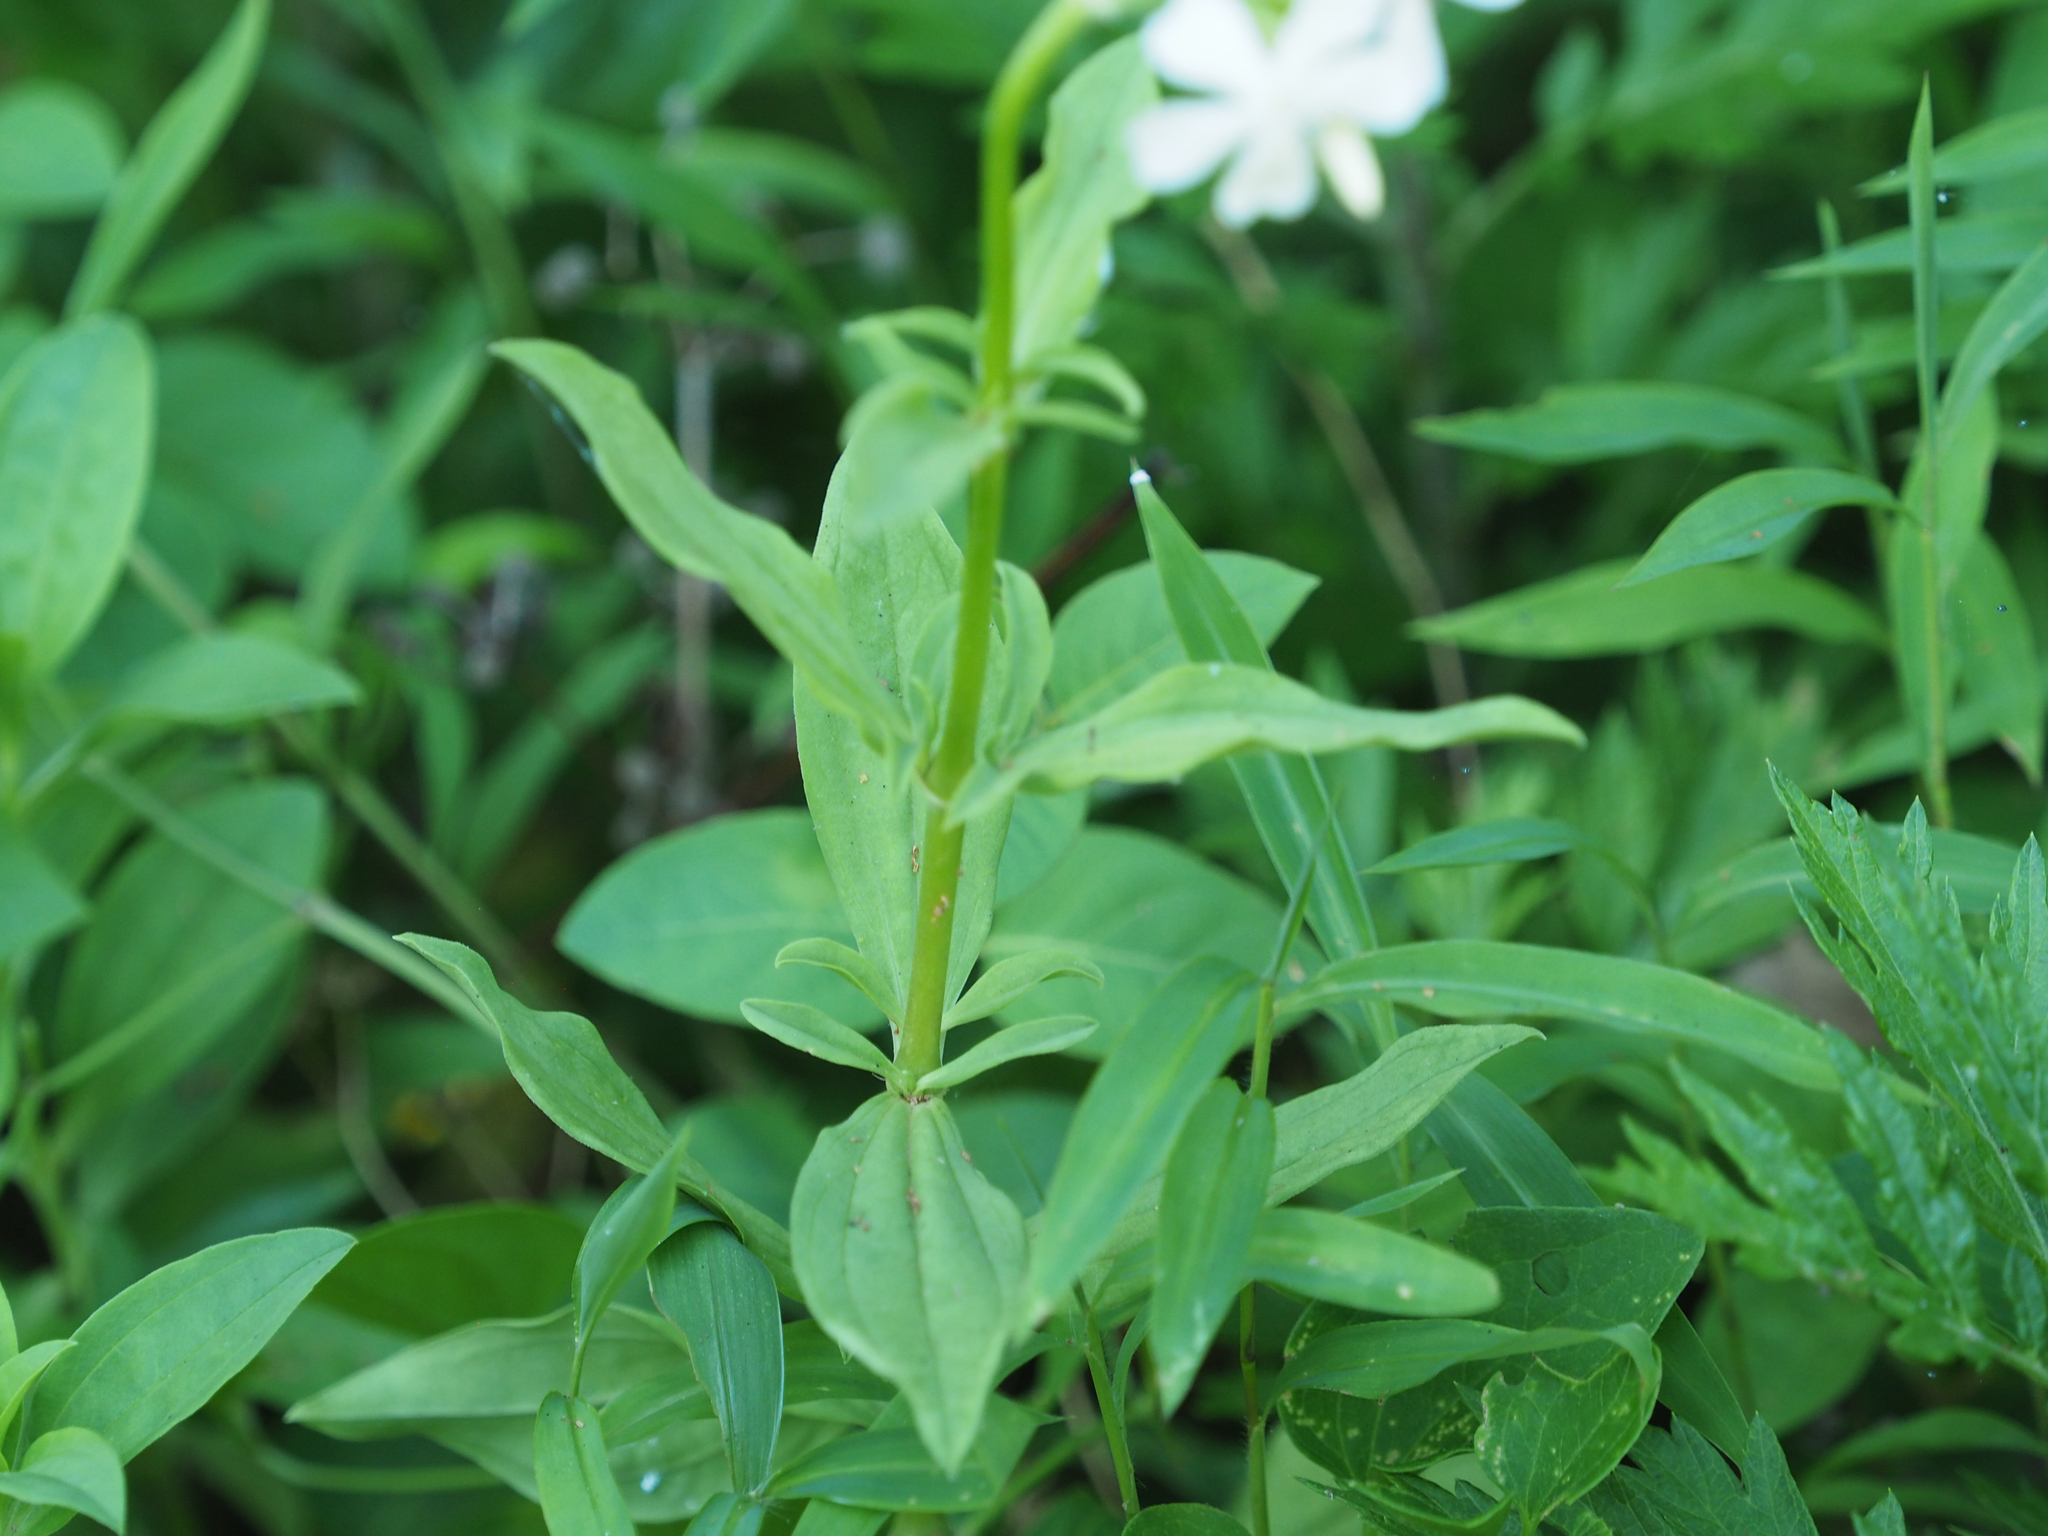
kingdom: Plantae
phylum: Tracheophyta
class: Magnoliopsida
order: Caryophyllales
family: Caryophyllaceae
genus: Saponaria
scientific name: Saponaria officinalis
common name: Soapwort
